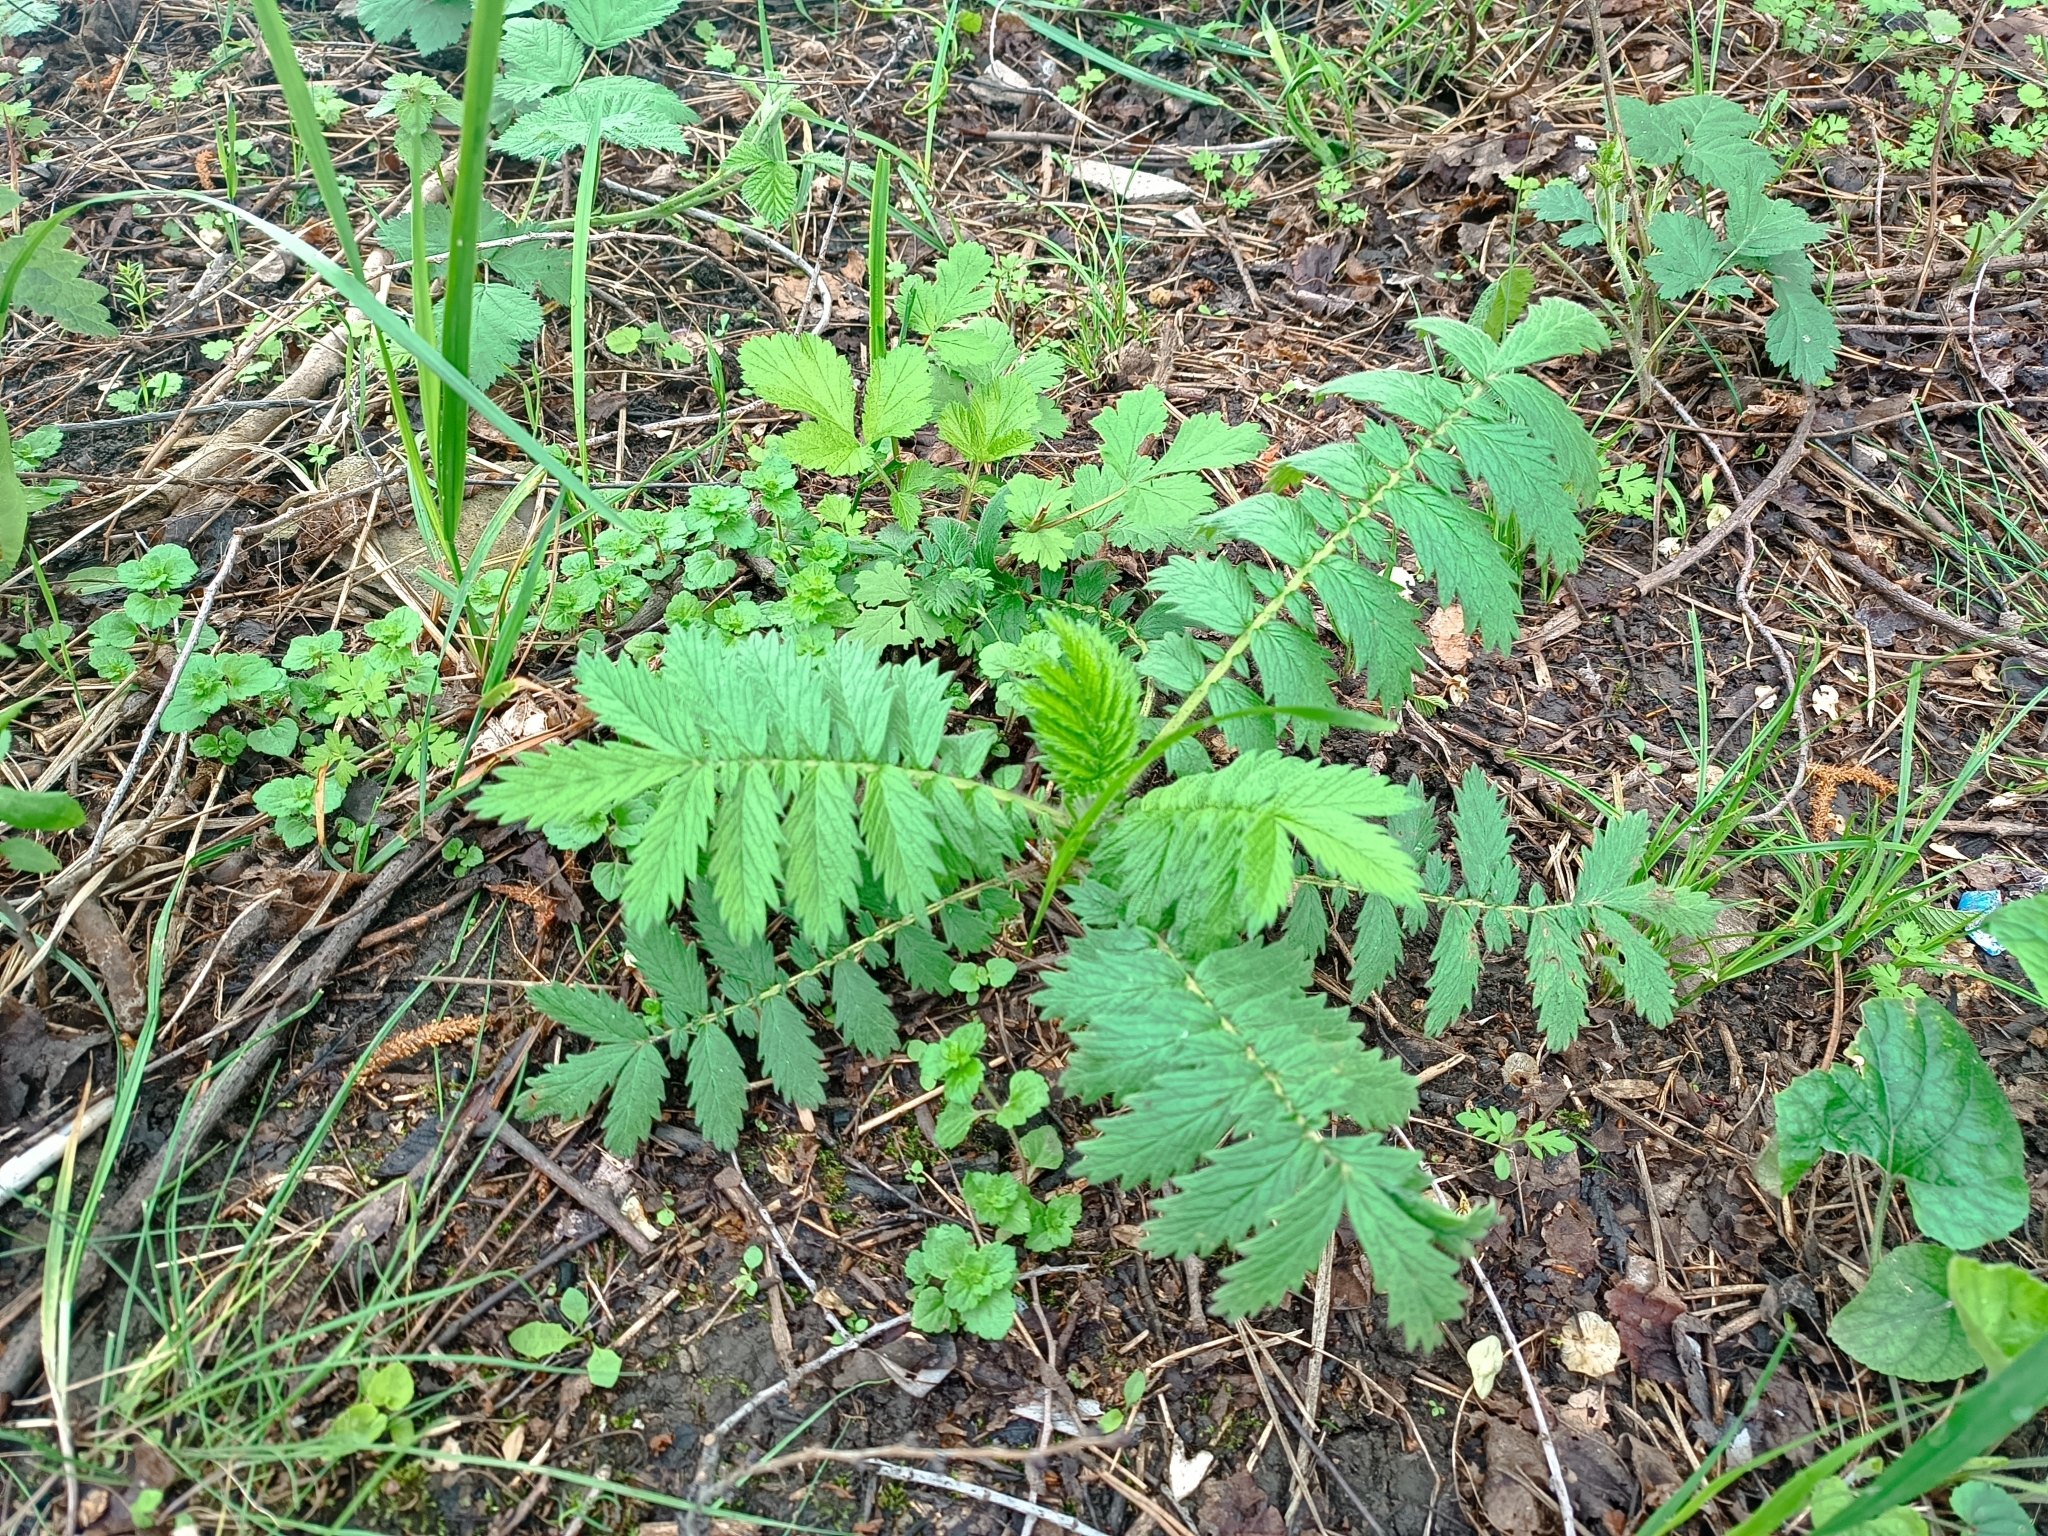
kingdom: Plantae
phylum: Tracheophyta
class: Magnoliopsida
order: Rosales
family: Rosaceae
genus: Agrimonia
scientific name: Agrimonia eupatoria
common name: Agrimony
